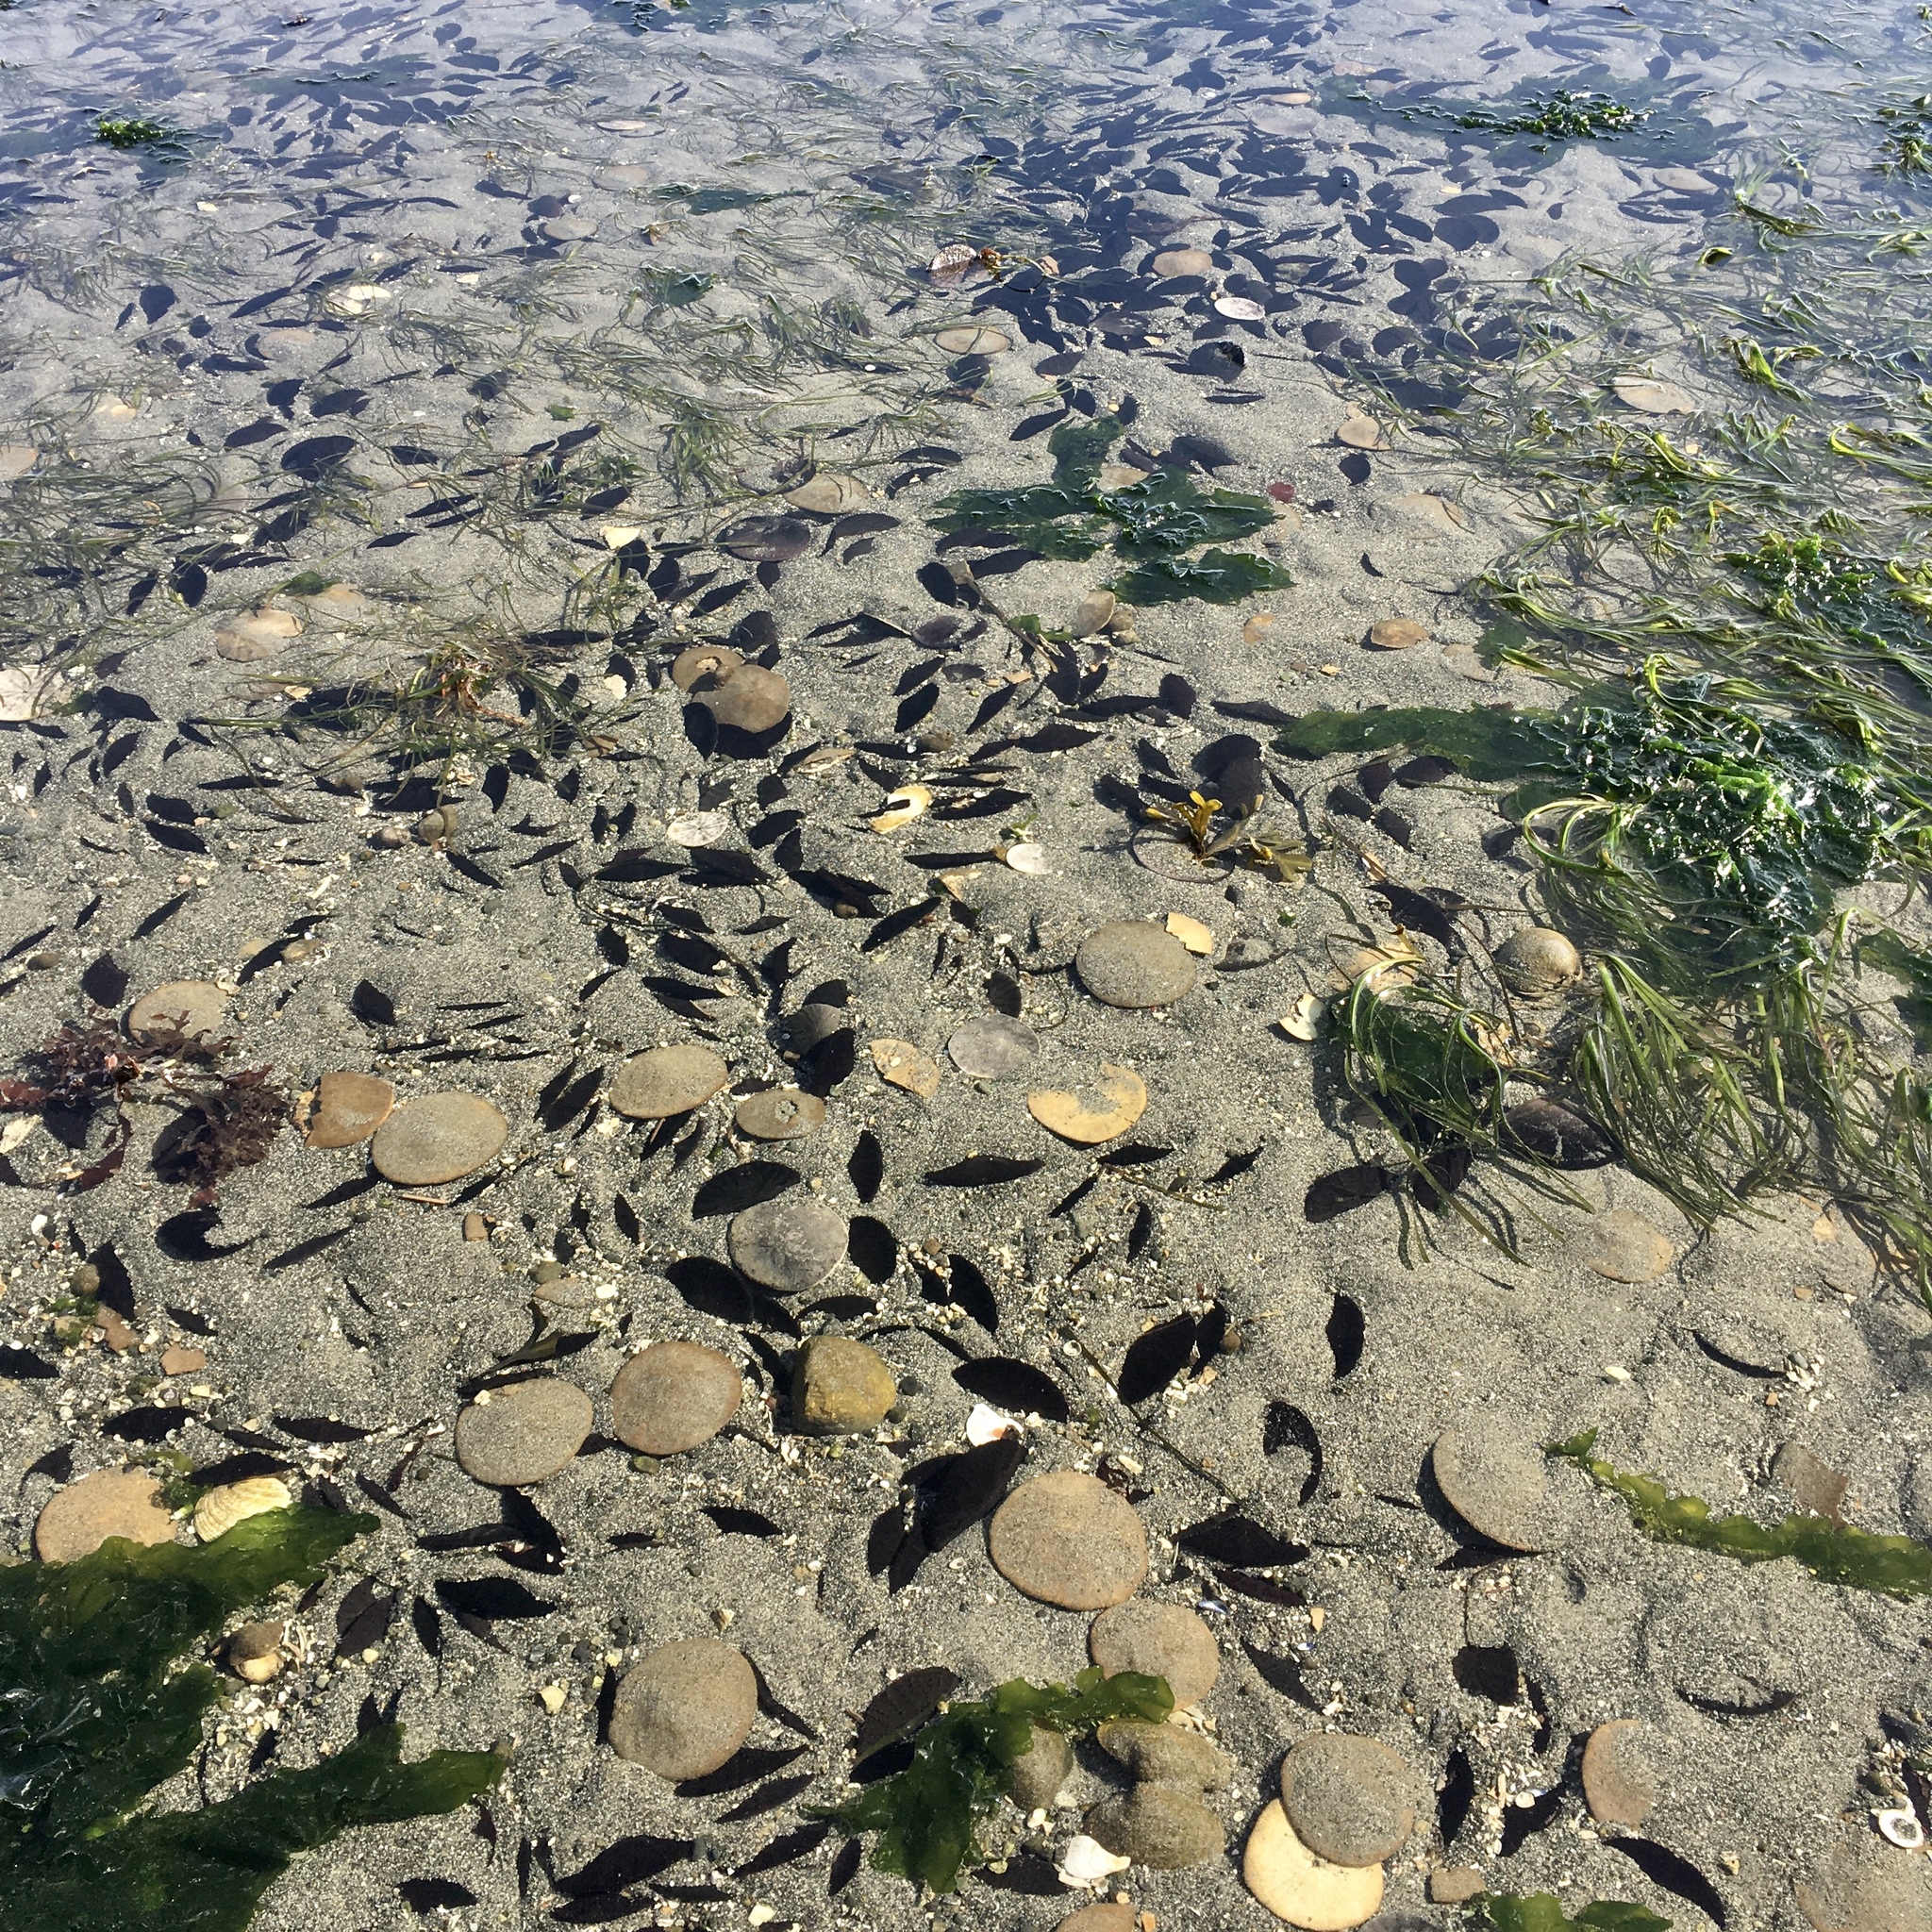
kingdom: Animalia
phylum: Echinodermata
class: Echinoidea
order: Echinolampadacea
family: Dendrasteridae
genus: Dendraster
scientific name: Dendraster excentricus
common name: Eccentric sand dollar sea urchin
